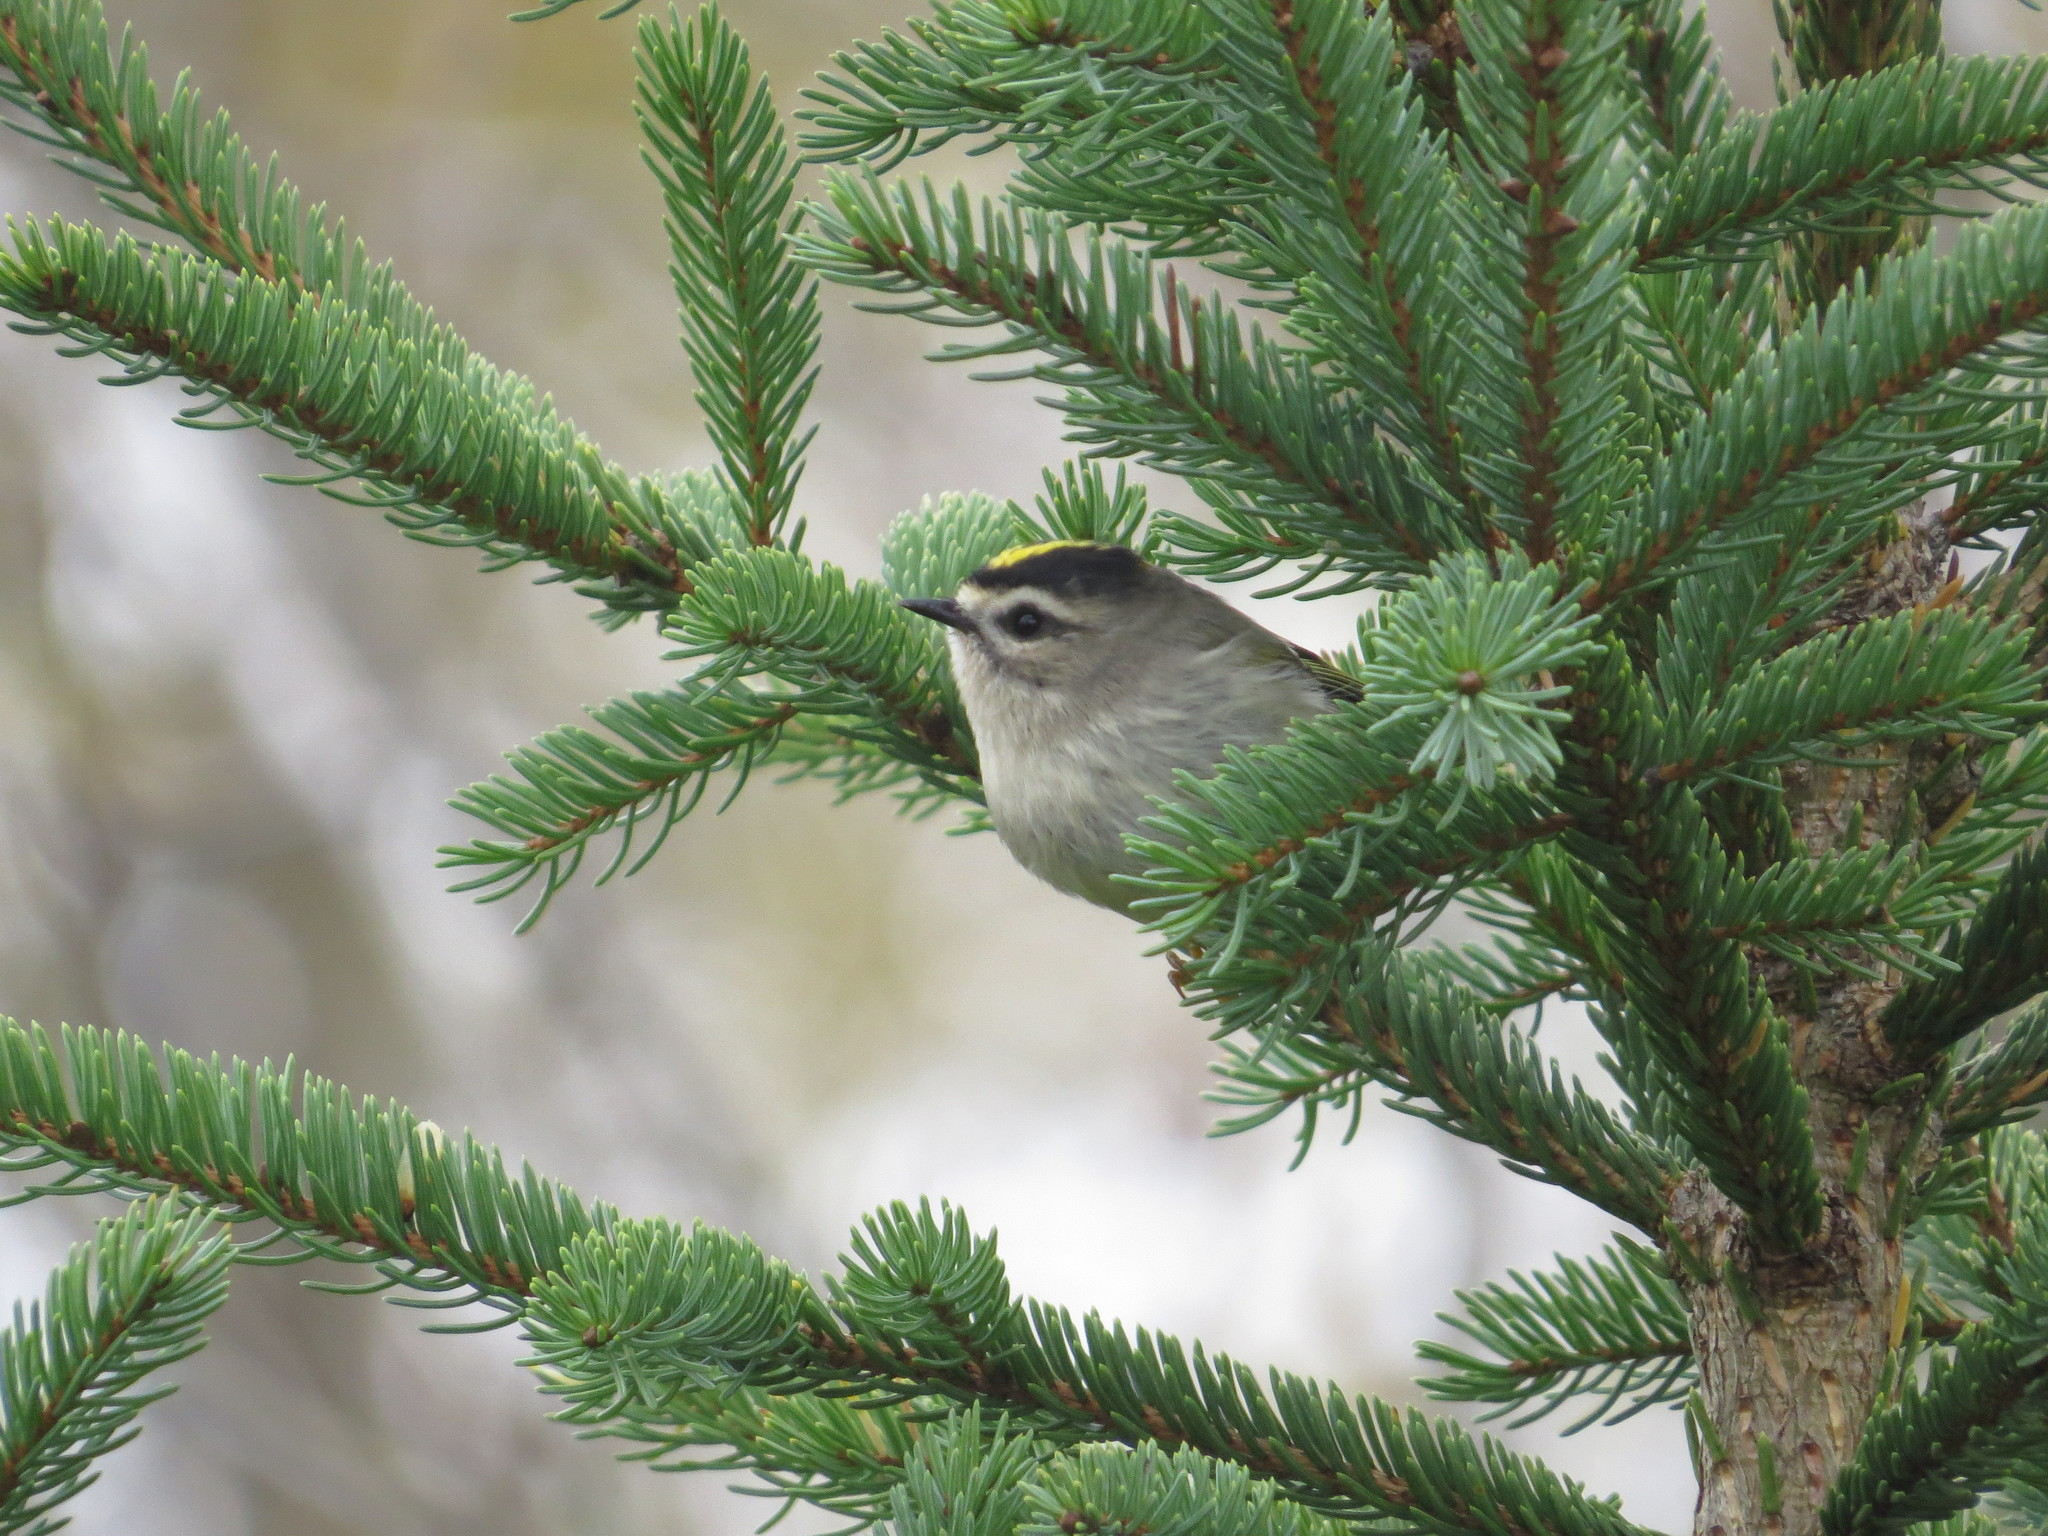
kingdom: Animalia
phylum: Chordata
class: Aves
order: Passeriformes
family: Regulidae
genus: Regulus
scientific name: Regulus satrapa
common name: Golden-crowned kinglet
